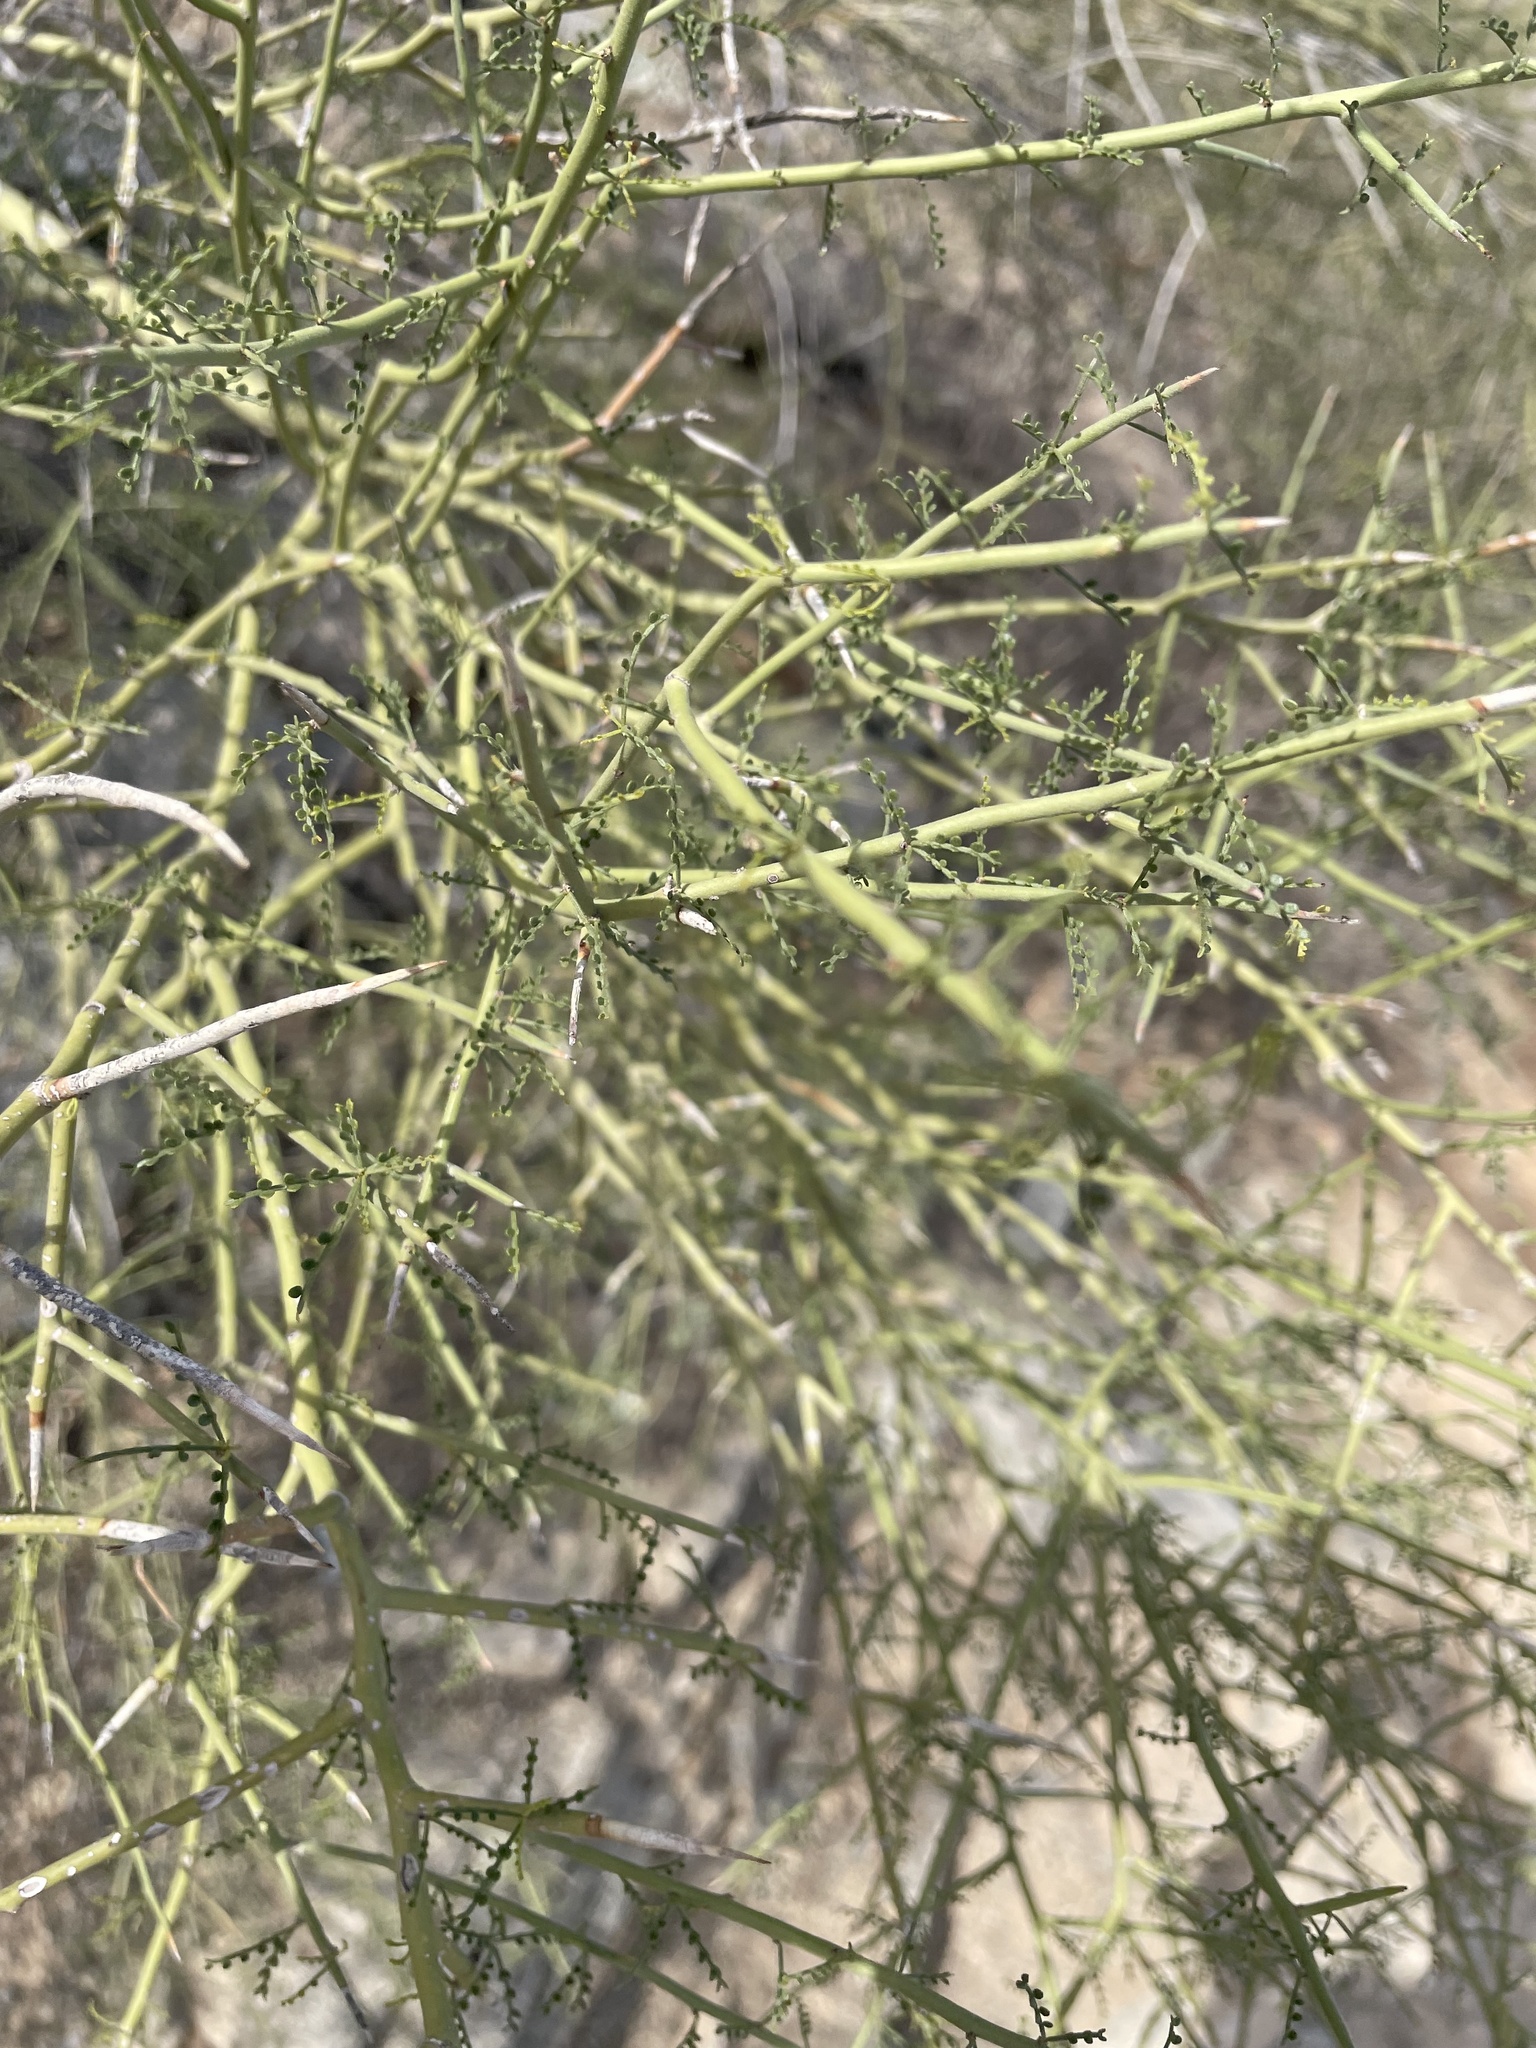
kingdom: Plantae
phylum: Tracheophyta
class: Magnoliopsida
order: Fabales
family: Fabaceae
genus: Parkinsonia
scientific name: Parkinsonia microphylla
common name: Yellow paloverde
